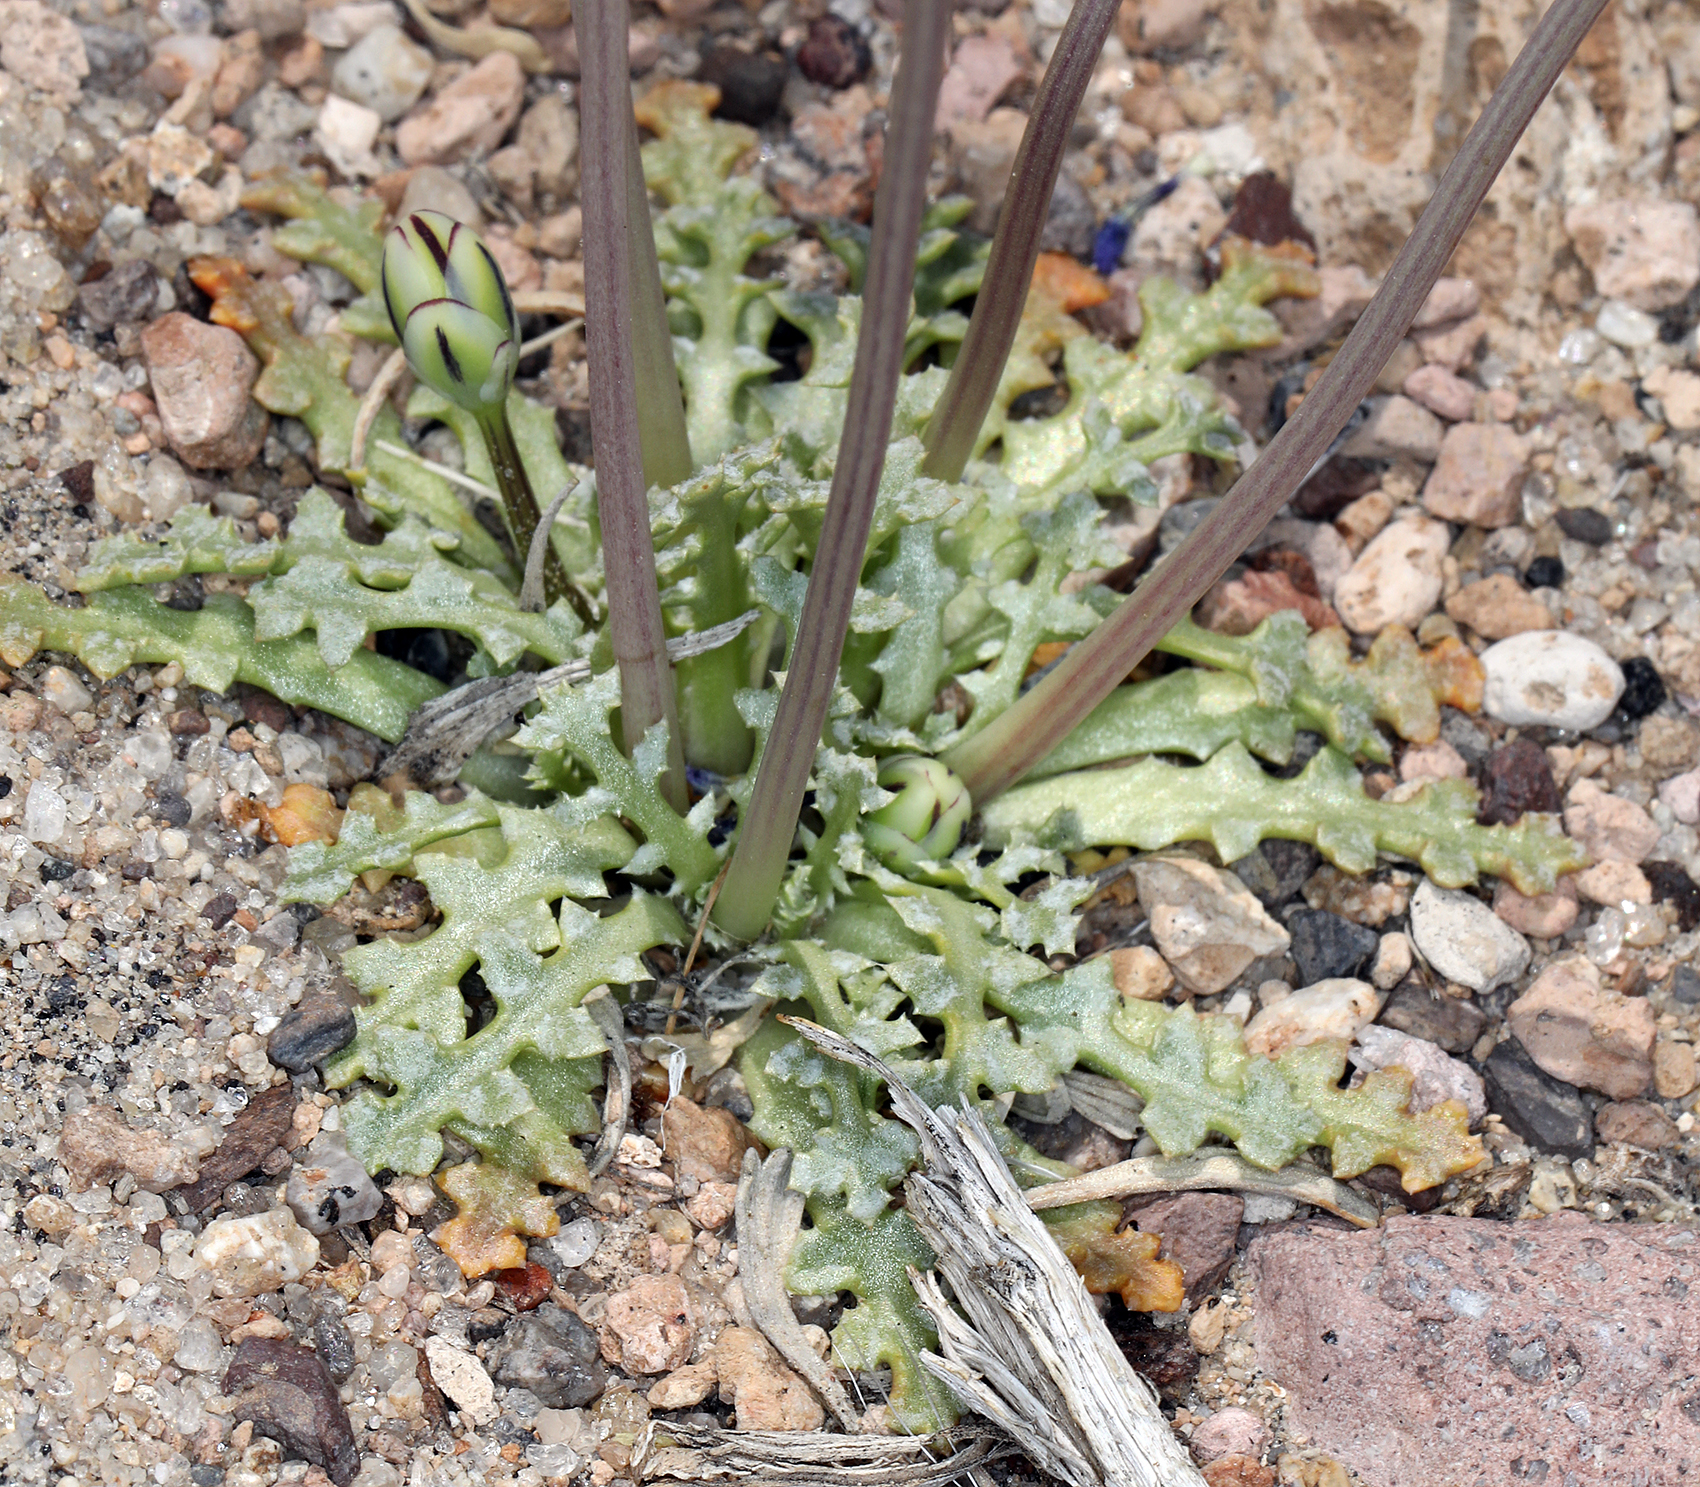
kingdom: Plantae
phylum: Tracheophyta
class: Magnoliopsida
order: Asterales
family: Asteraceae
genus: Anisocoma
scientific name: Anisocoma acaulis
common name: Scalebud
